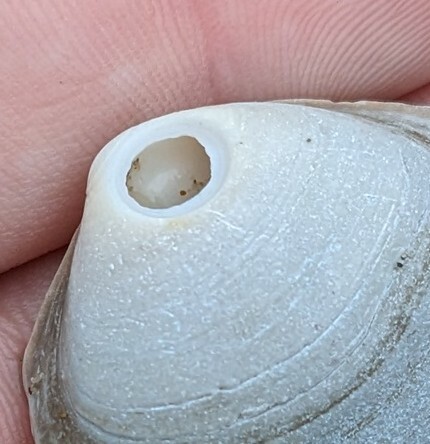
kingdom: Animalia
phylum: Mollusca
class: Gastropoda
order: Littorinimorpha
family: Naticidae
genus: Euspira
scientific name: Euspira heros
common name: Common northern moonsnail
